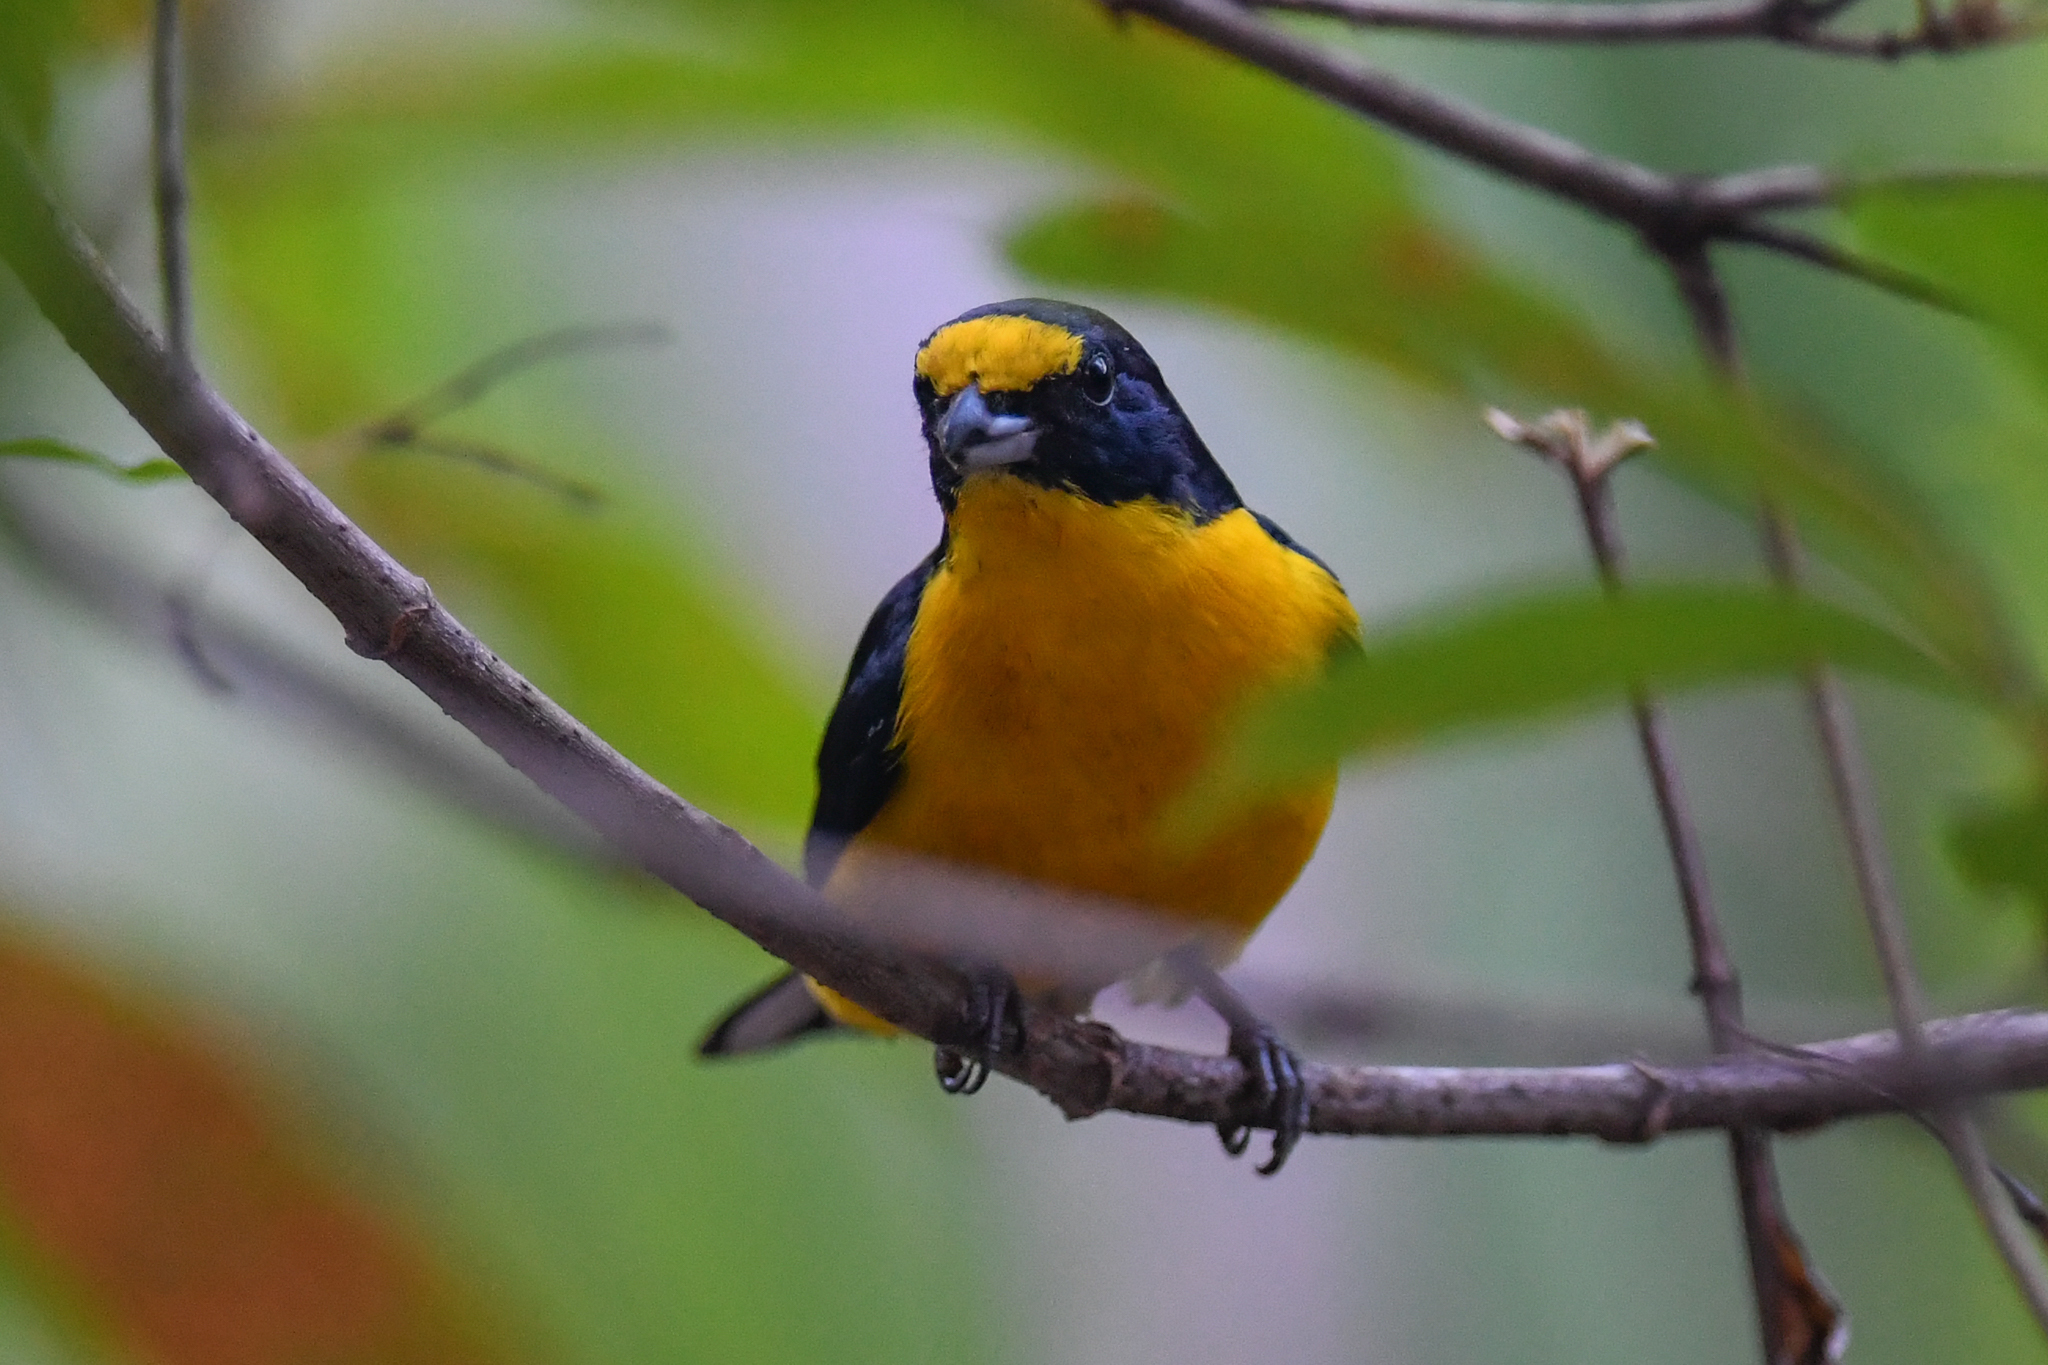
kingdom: Animalia
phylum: Chordata
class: Aves
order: Passeriformes
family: Fringillidae
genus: Euphonia
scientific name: Euphonia hirundinacea
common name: Yellow-throated euphonia
